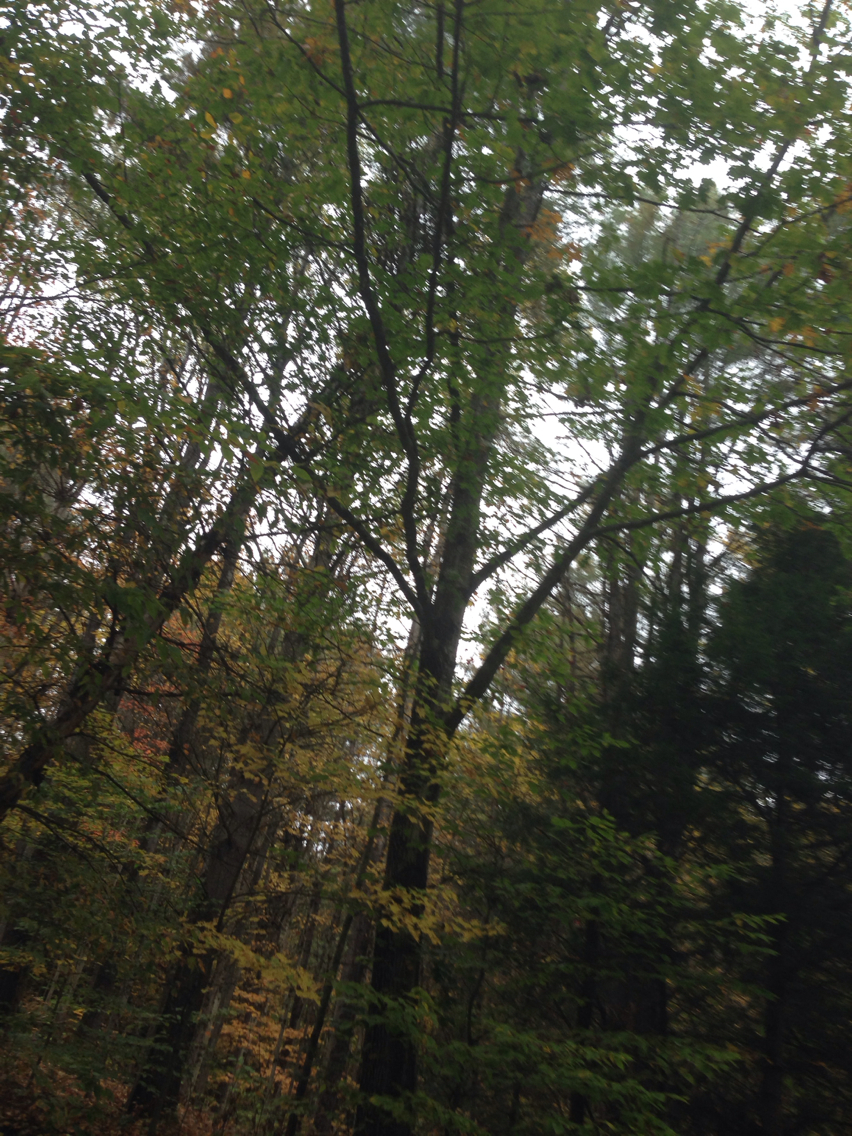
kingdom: Plantae
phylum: Tracheophyta
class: Magnoliopsida
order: Fagales
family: Fagaceae
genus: Quercus
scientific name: Quercus rubra
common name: Red oak
